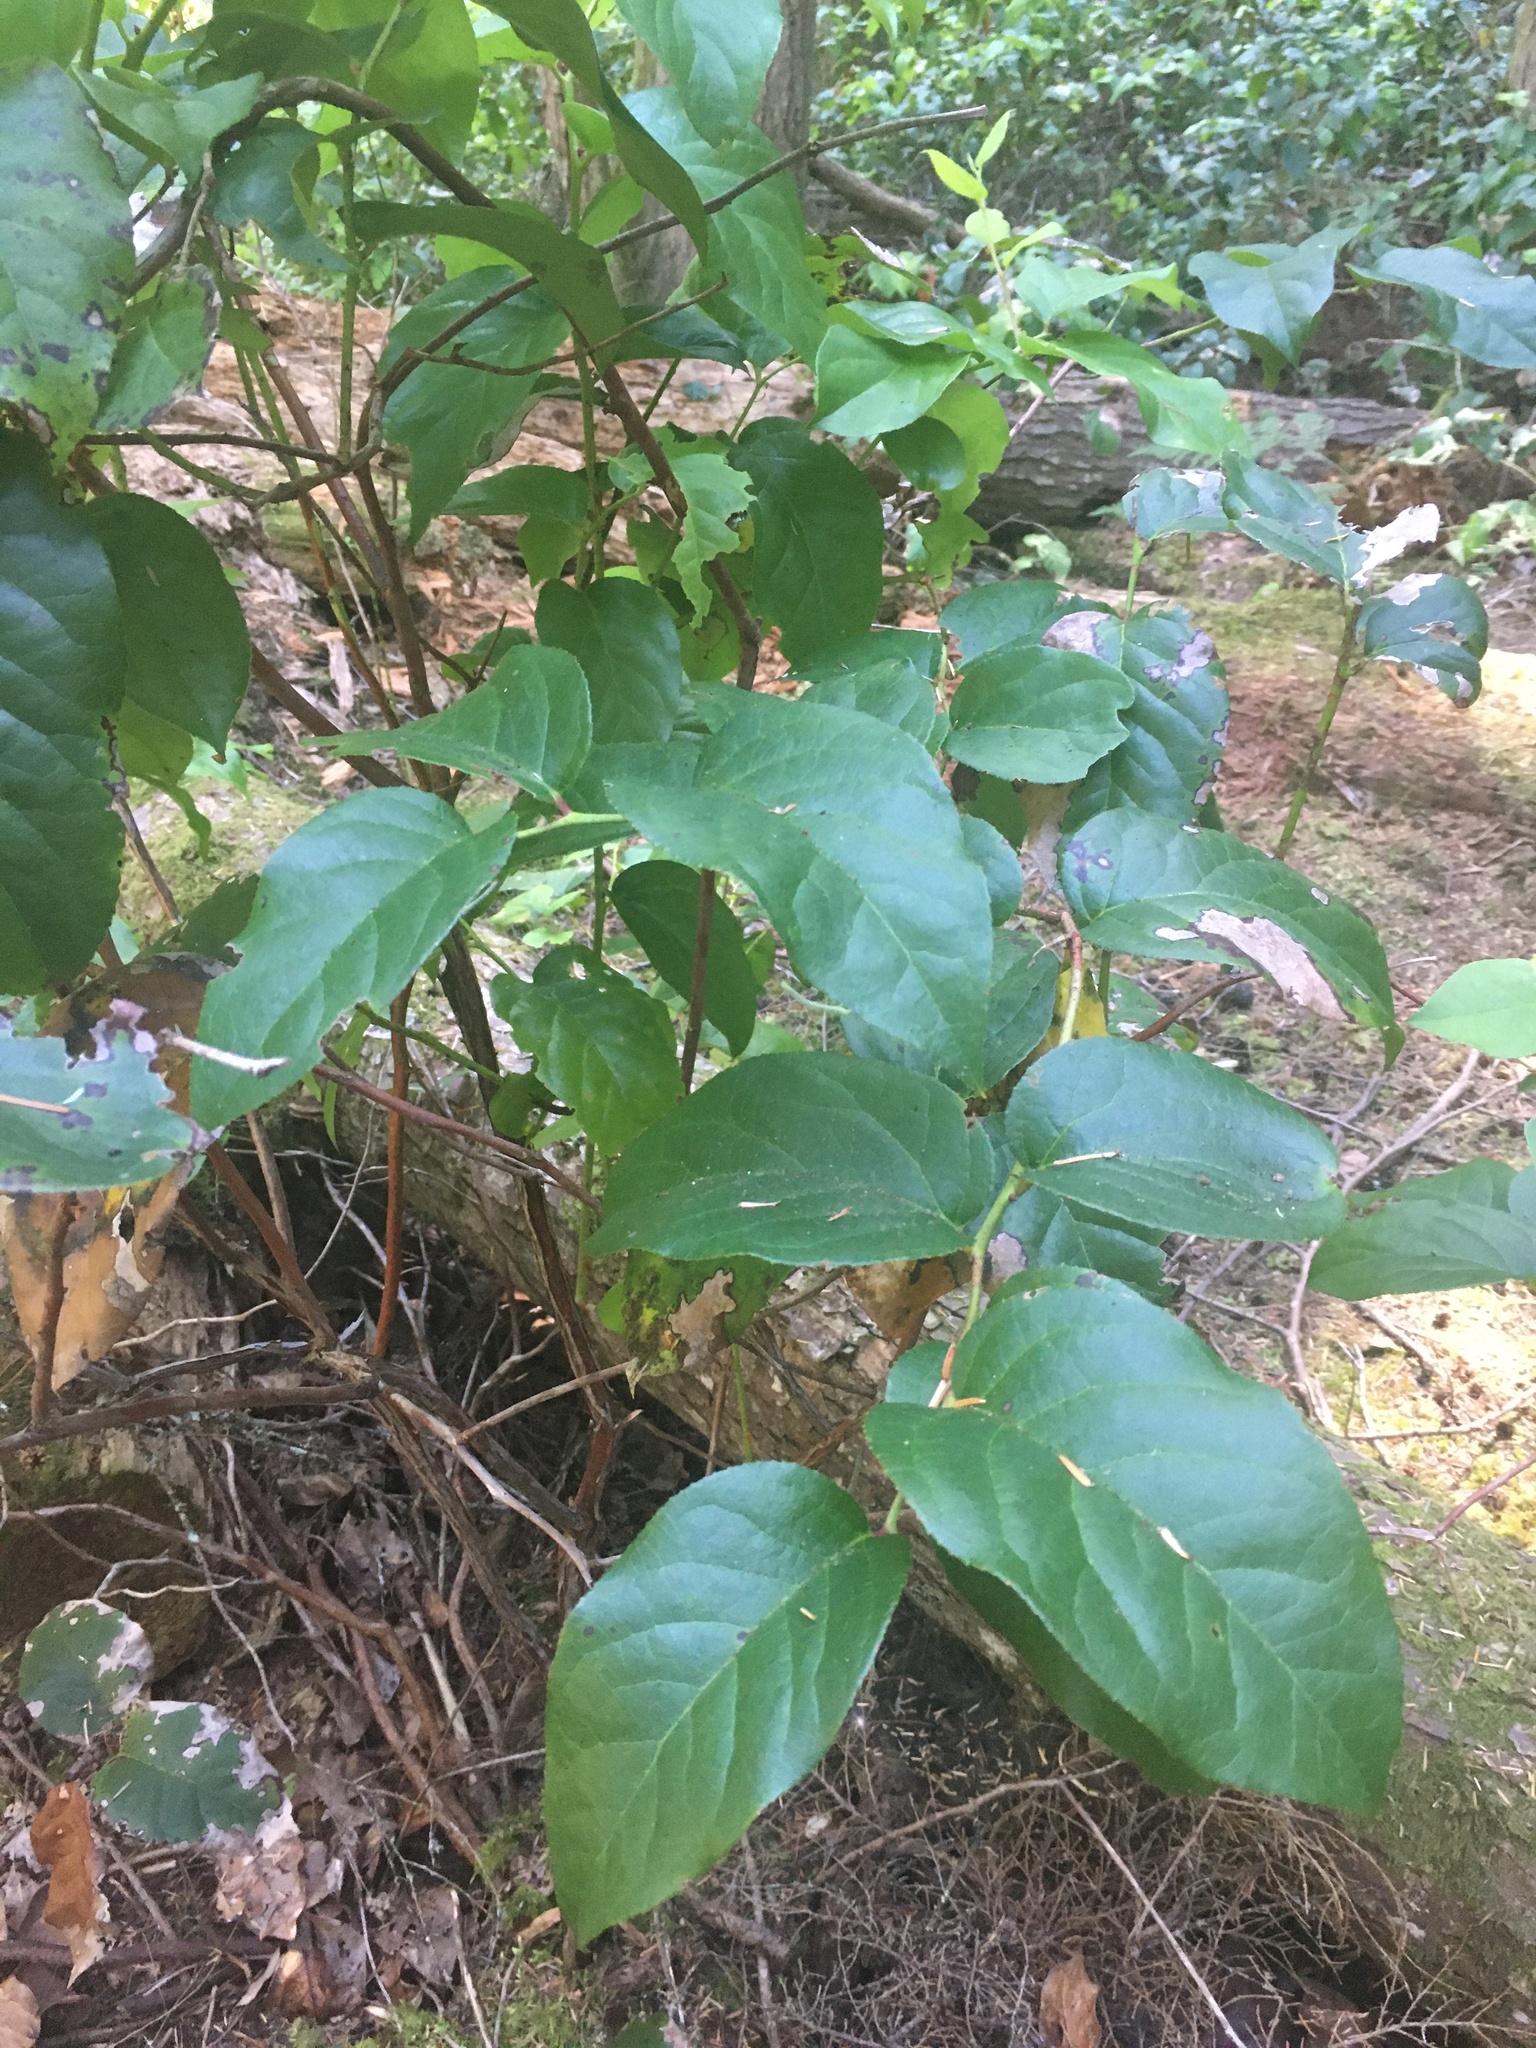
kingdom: Plantae
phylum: Tracheophyta
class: Magnoliopsida
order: Ericales
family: Ericaceae
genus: Gaultheria
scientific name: Gaultheria shallon
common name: Shallon
